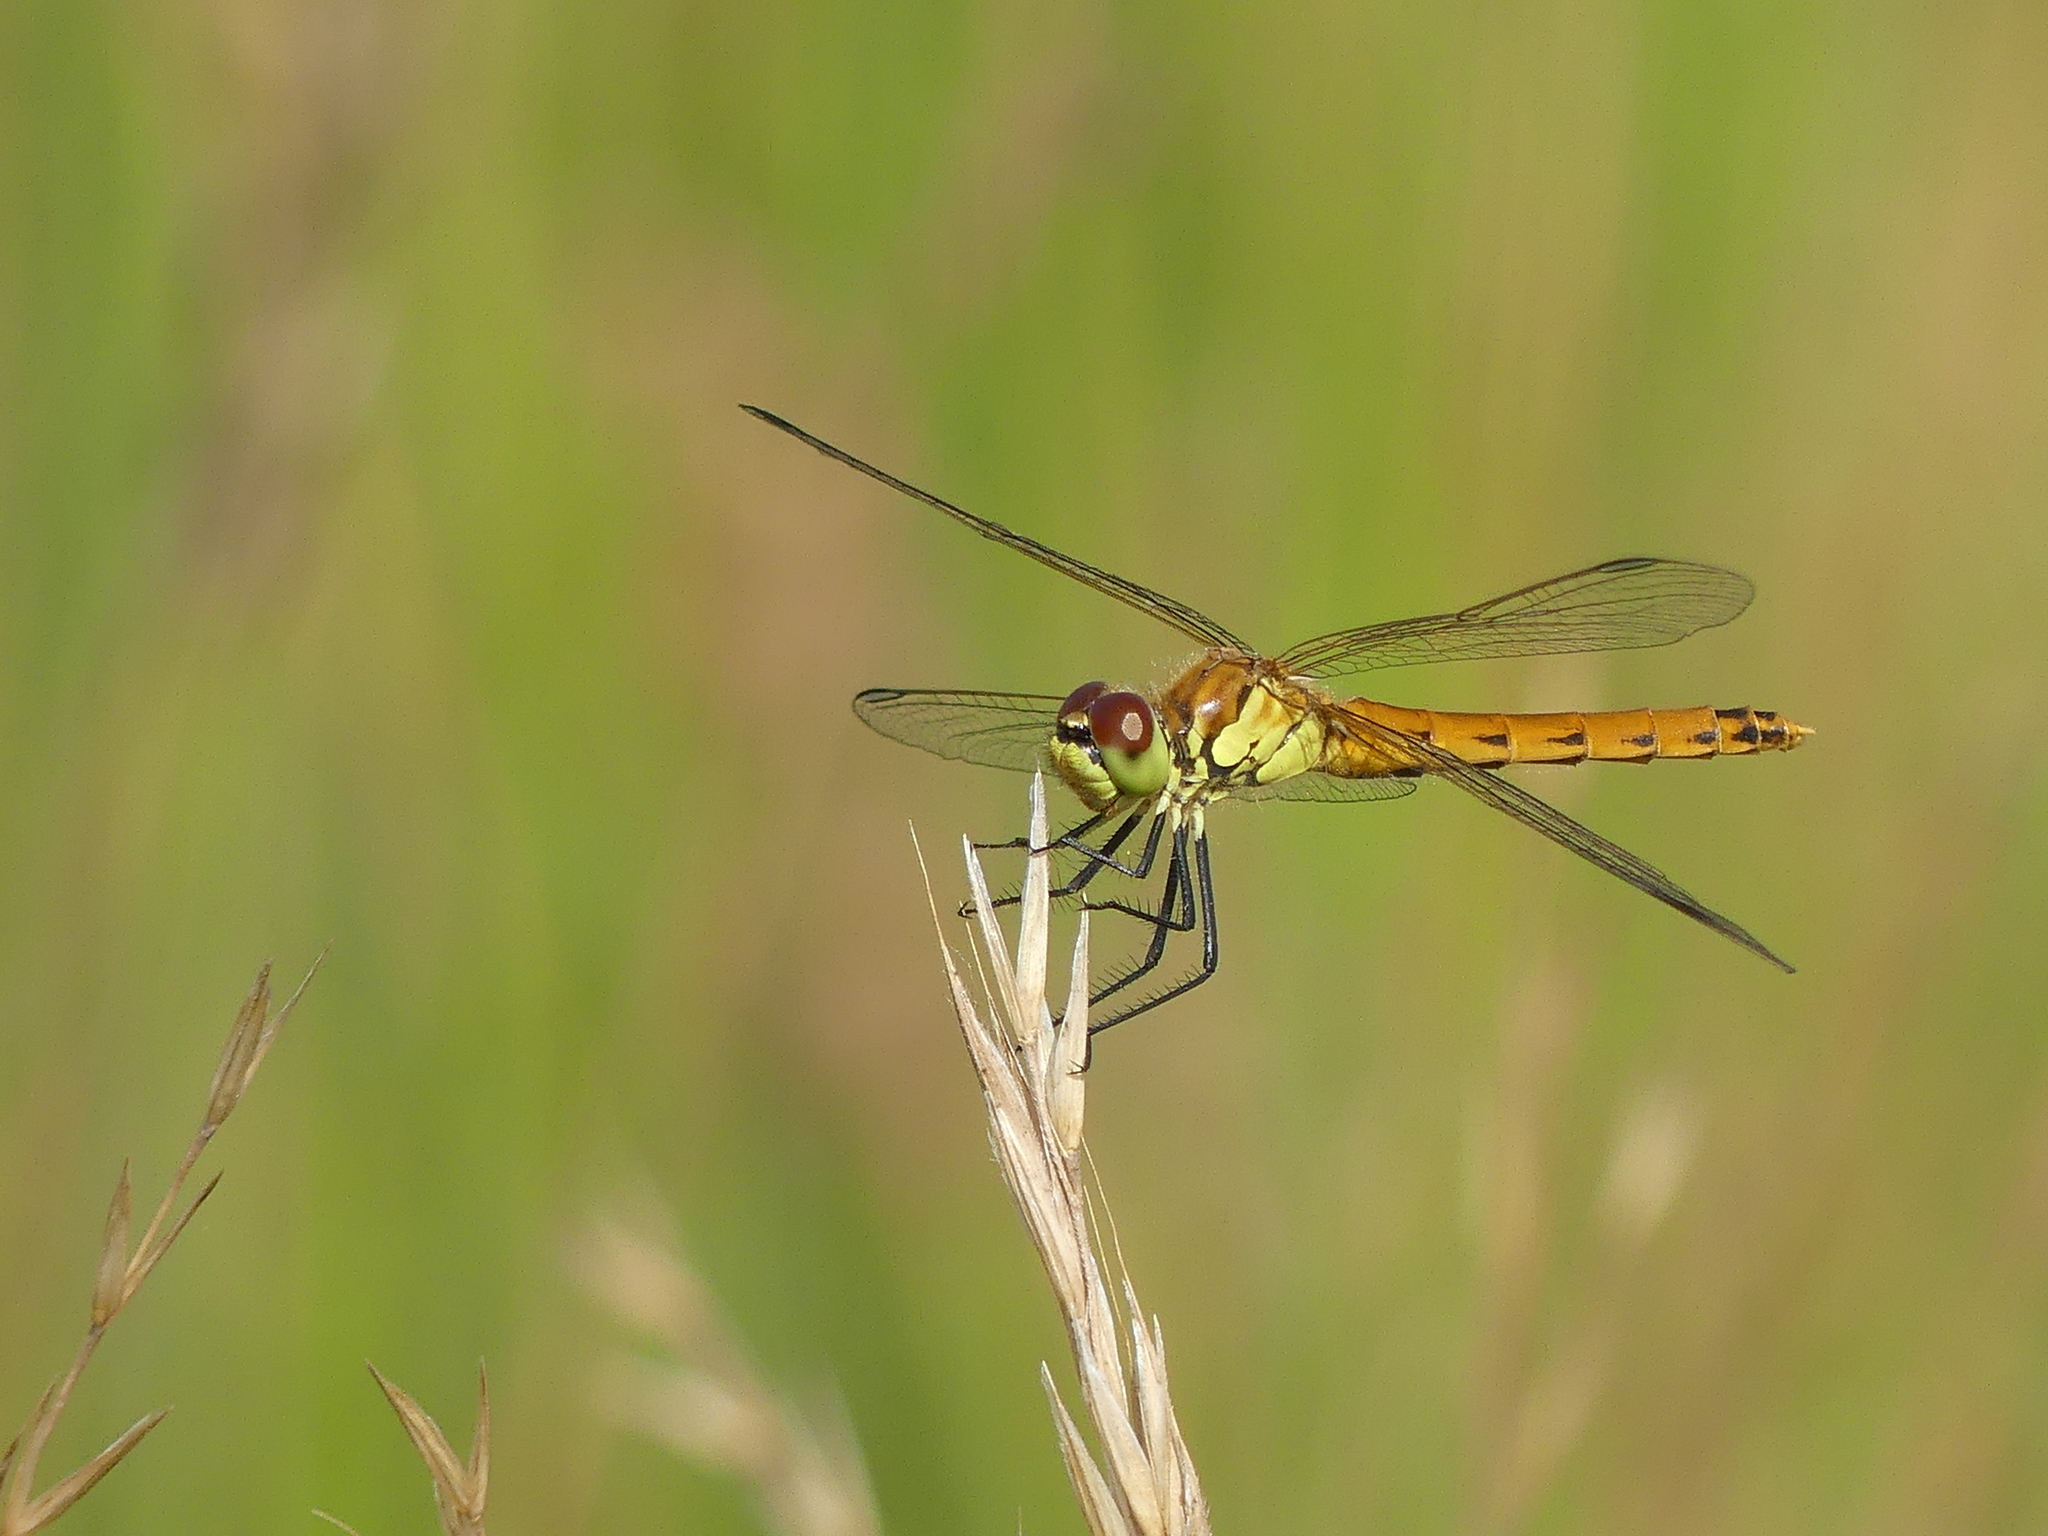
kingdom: Animalia
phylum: Arthropoda
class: Insecta
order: Odonata
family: Libellulidae
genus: Sympetrum
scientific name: Sympetrum depressiusculum
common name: Spotted darter
